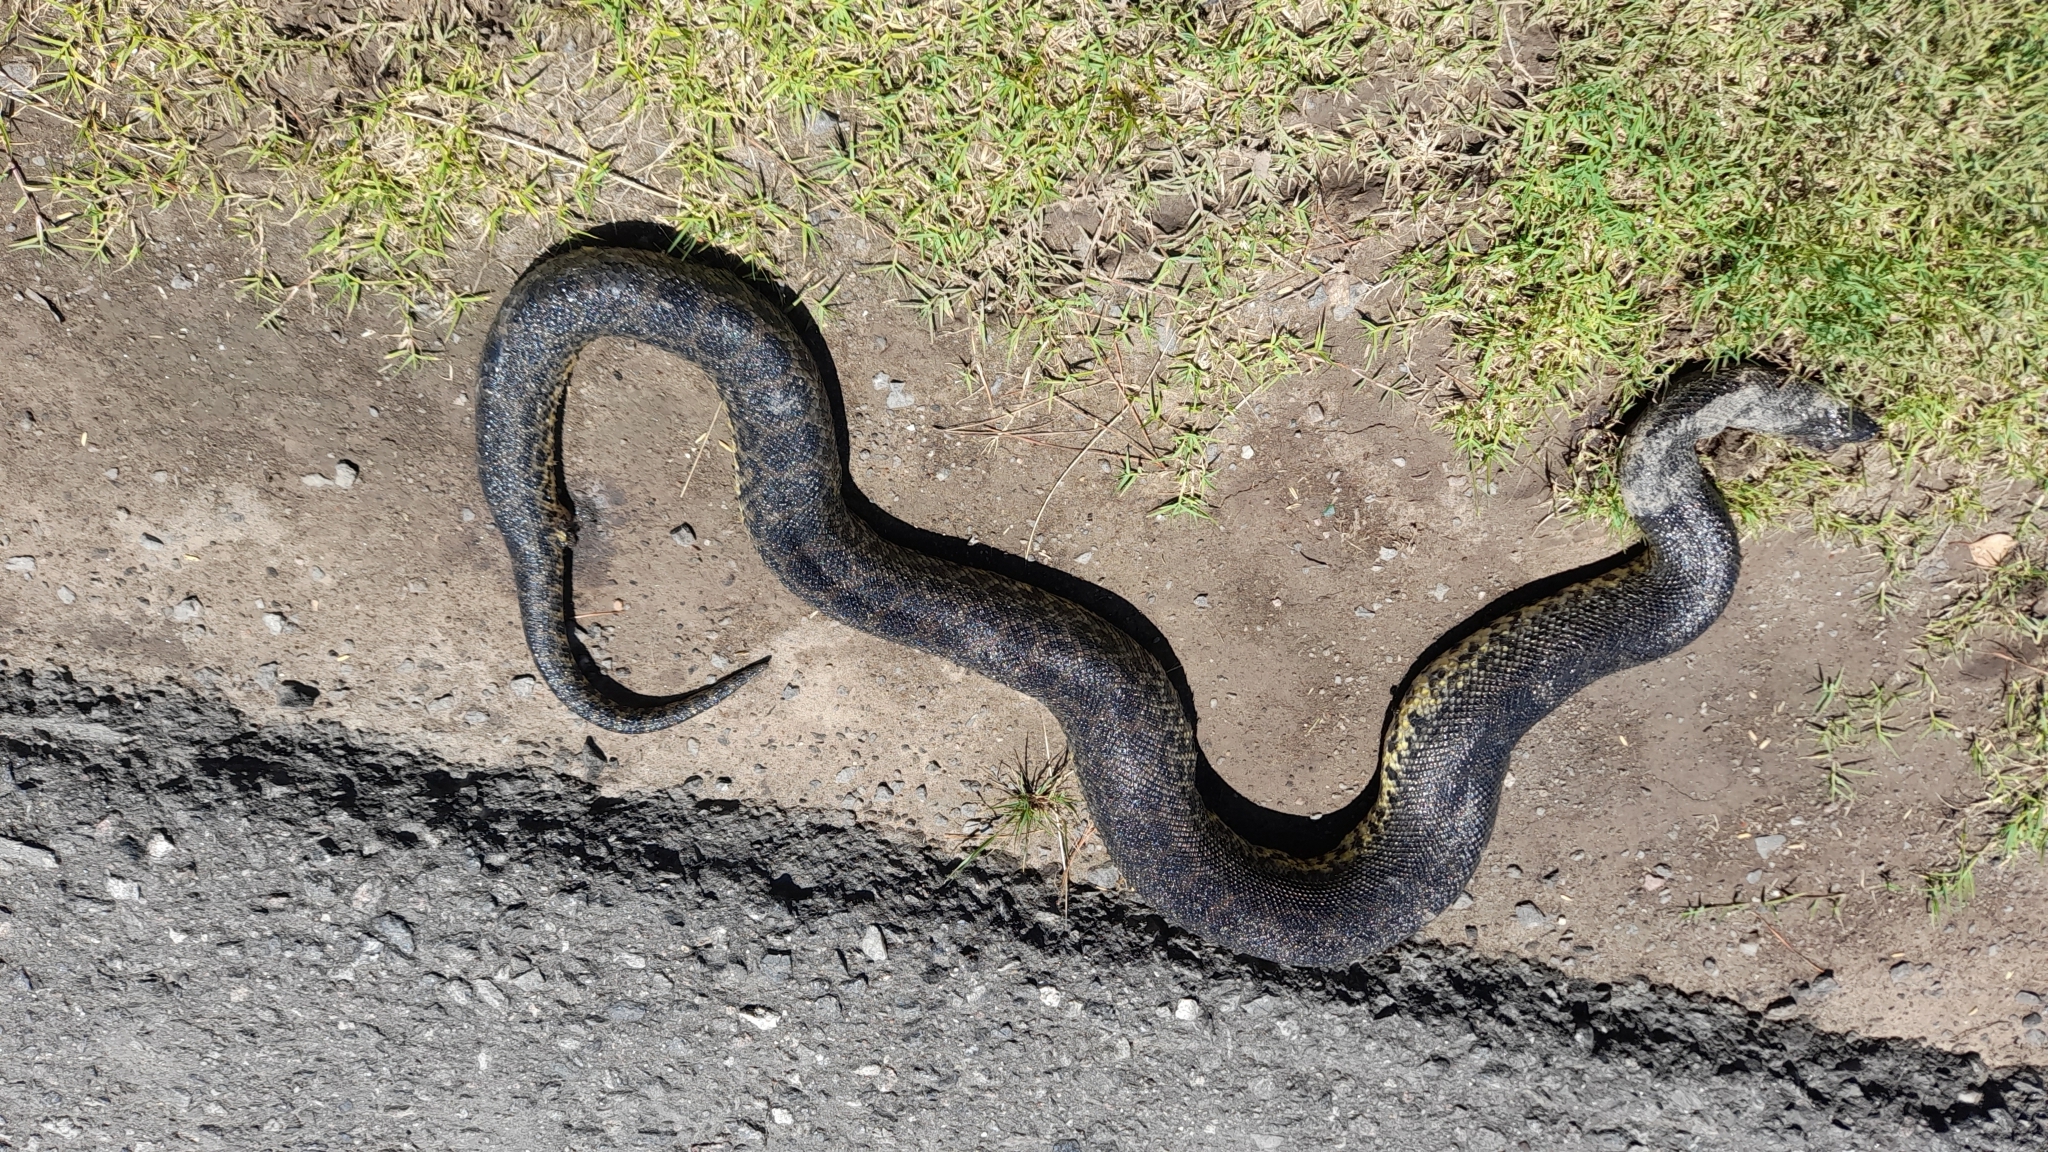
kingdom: Animalia
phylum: Chordata
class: Squamata
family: Boidae
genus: Eunectes
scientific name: Eunectes notaeus
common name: Yellow anaconda
